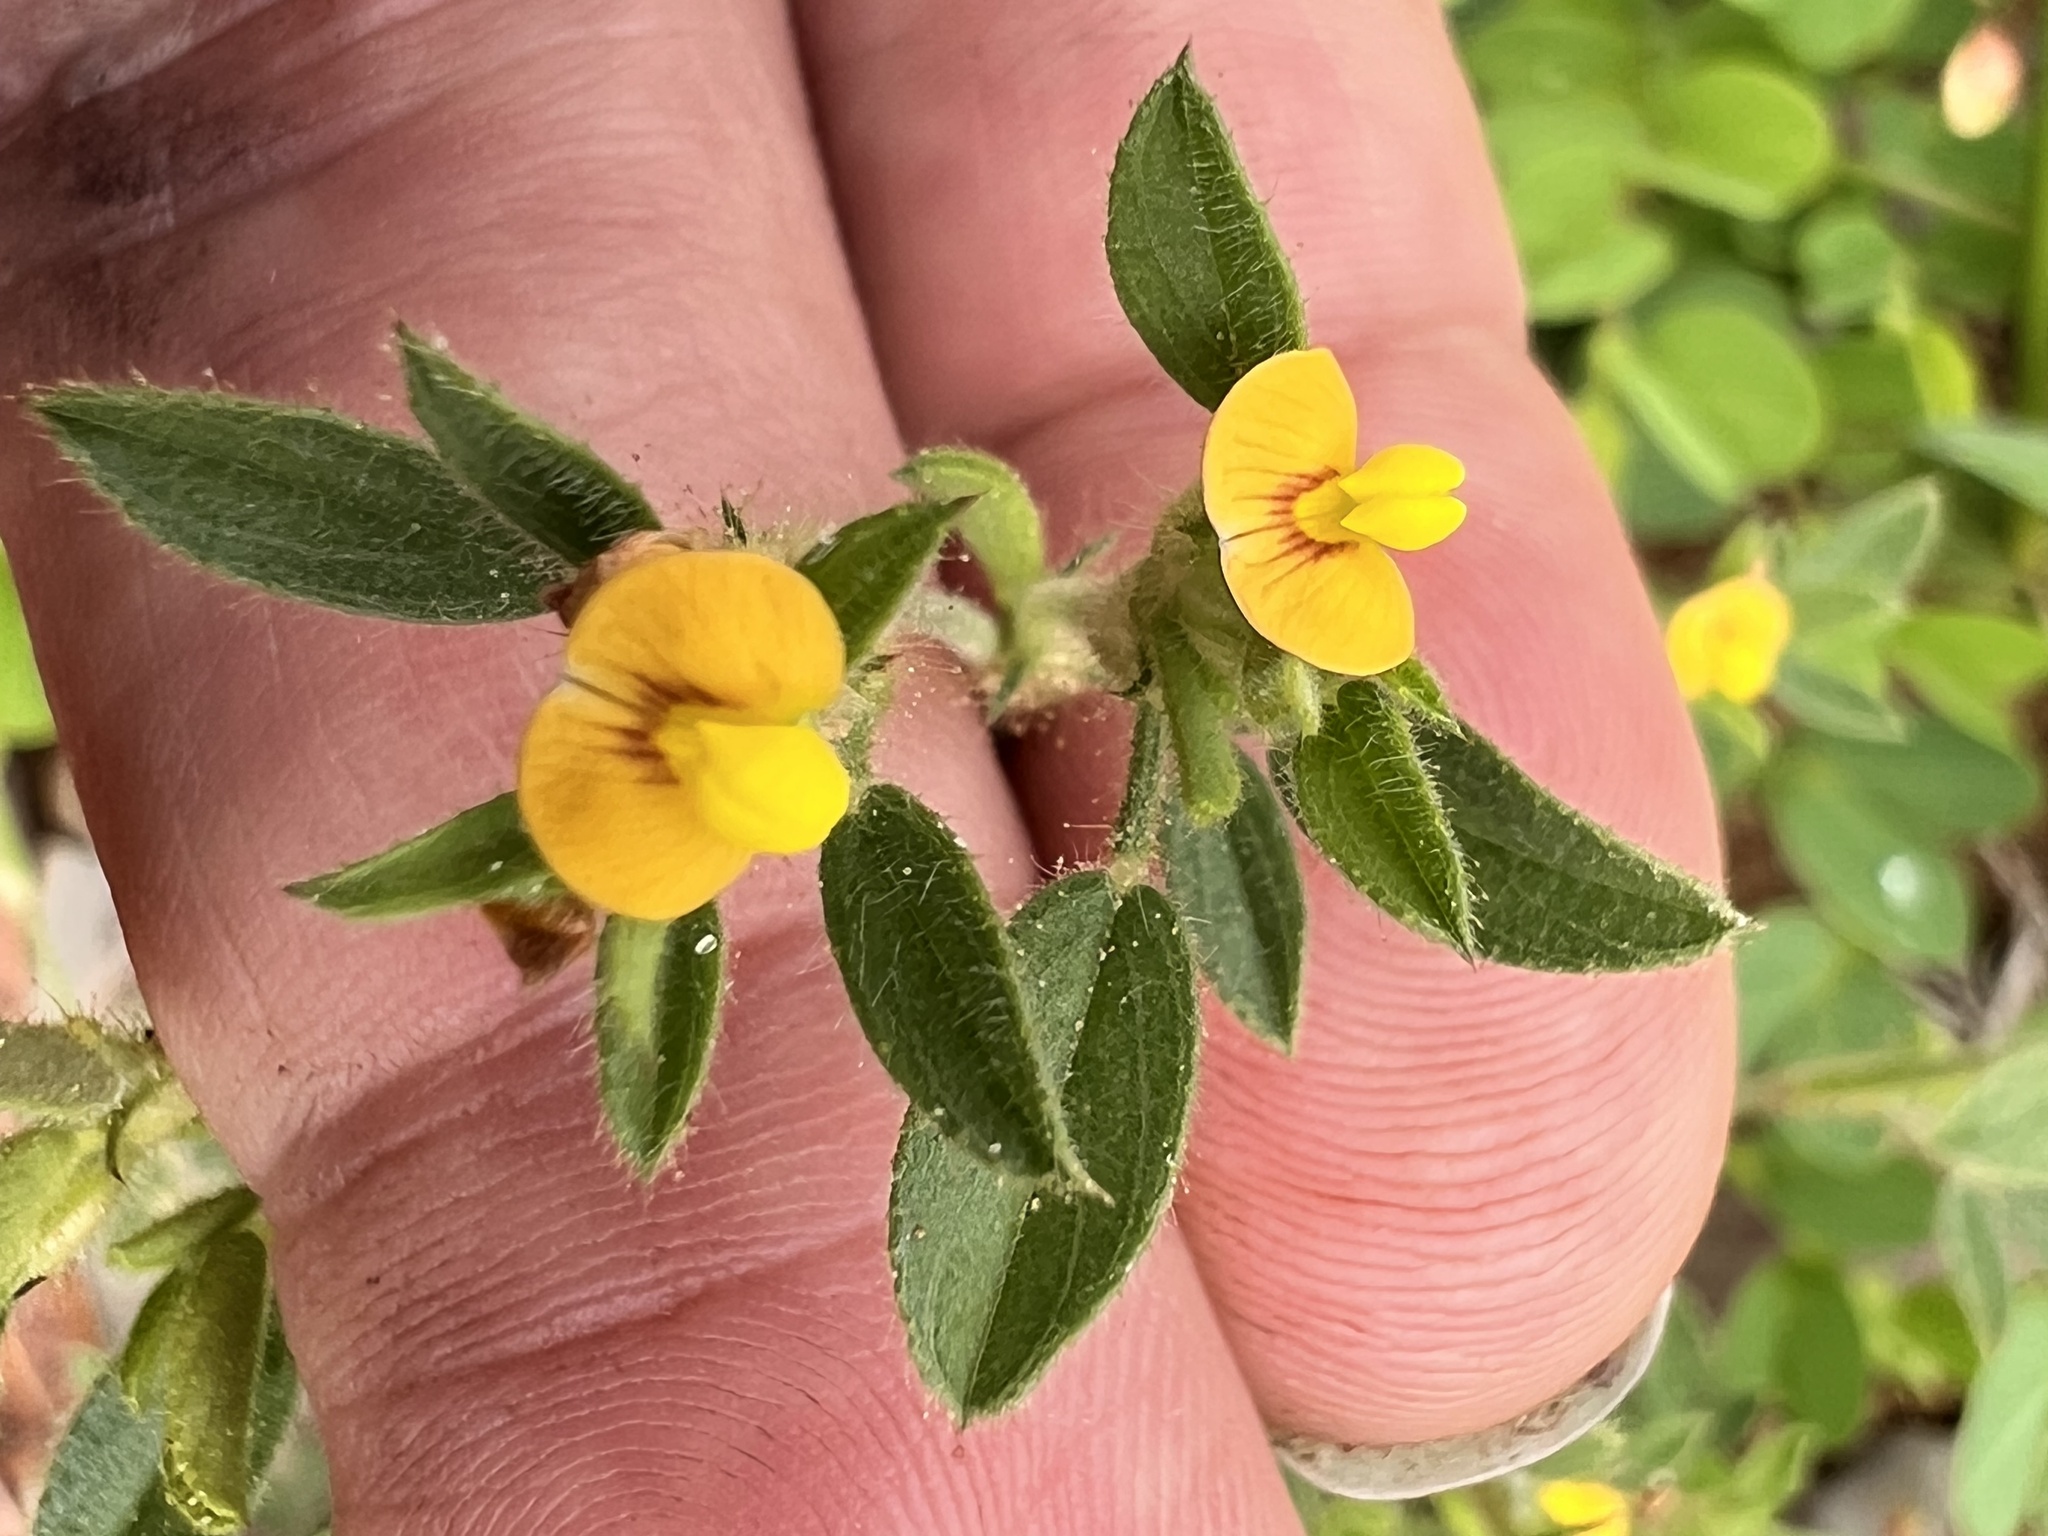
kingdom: Plantae
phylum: Tracheophyta
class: Magnoliopsida
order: Fabales
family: Fabaceae
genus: Stylosanthes
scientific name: Stylosanthes viscosa
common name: Viscid pencil-flower
